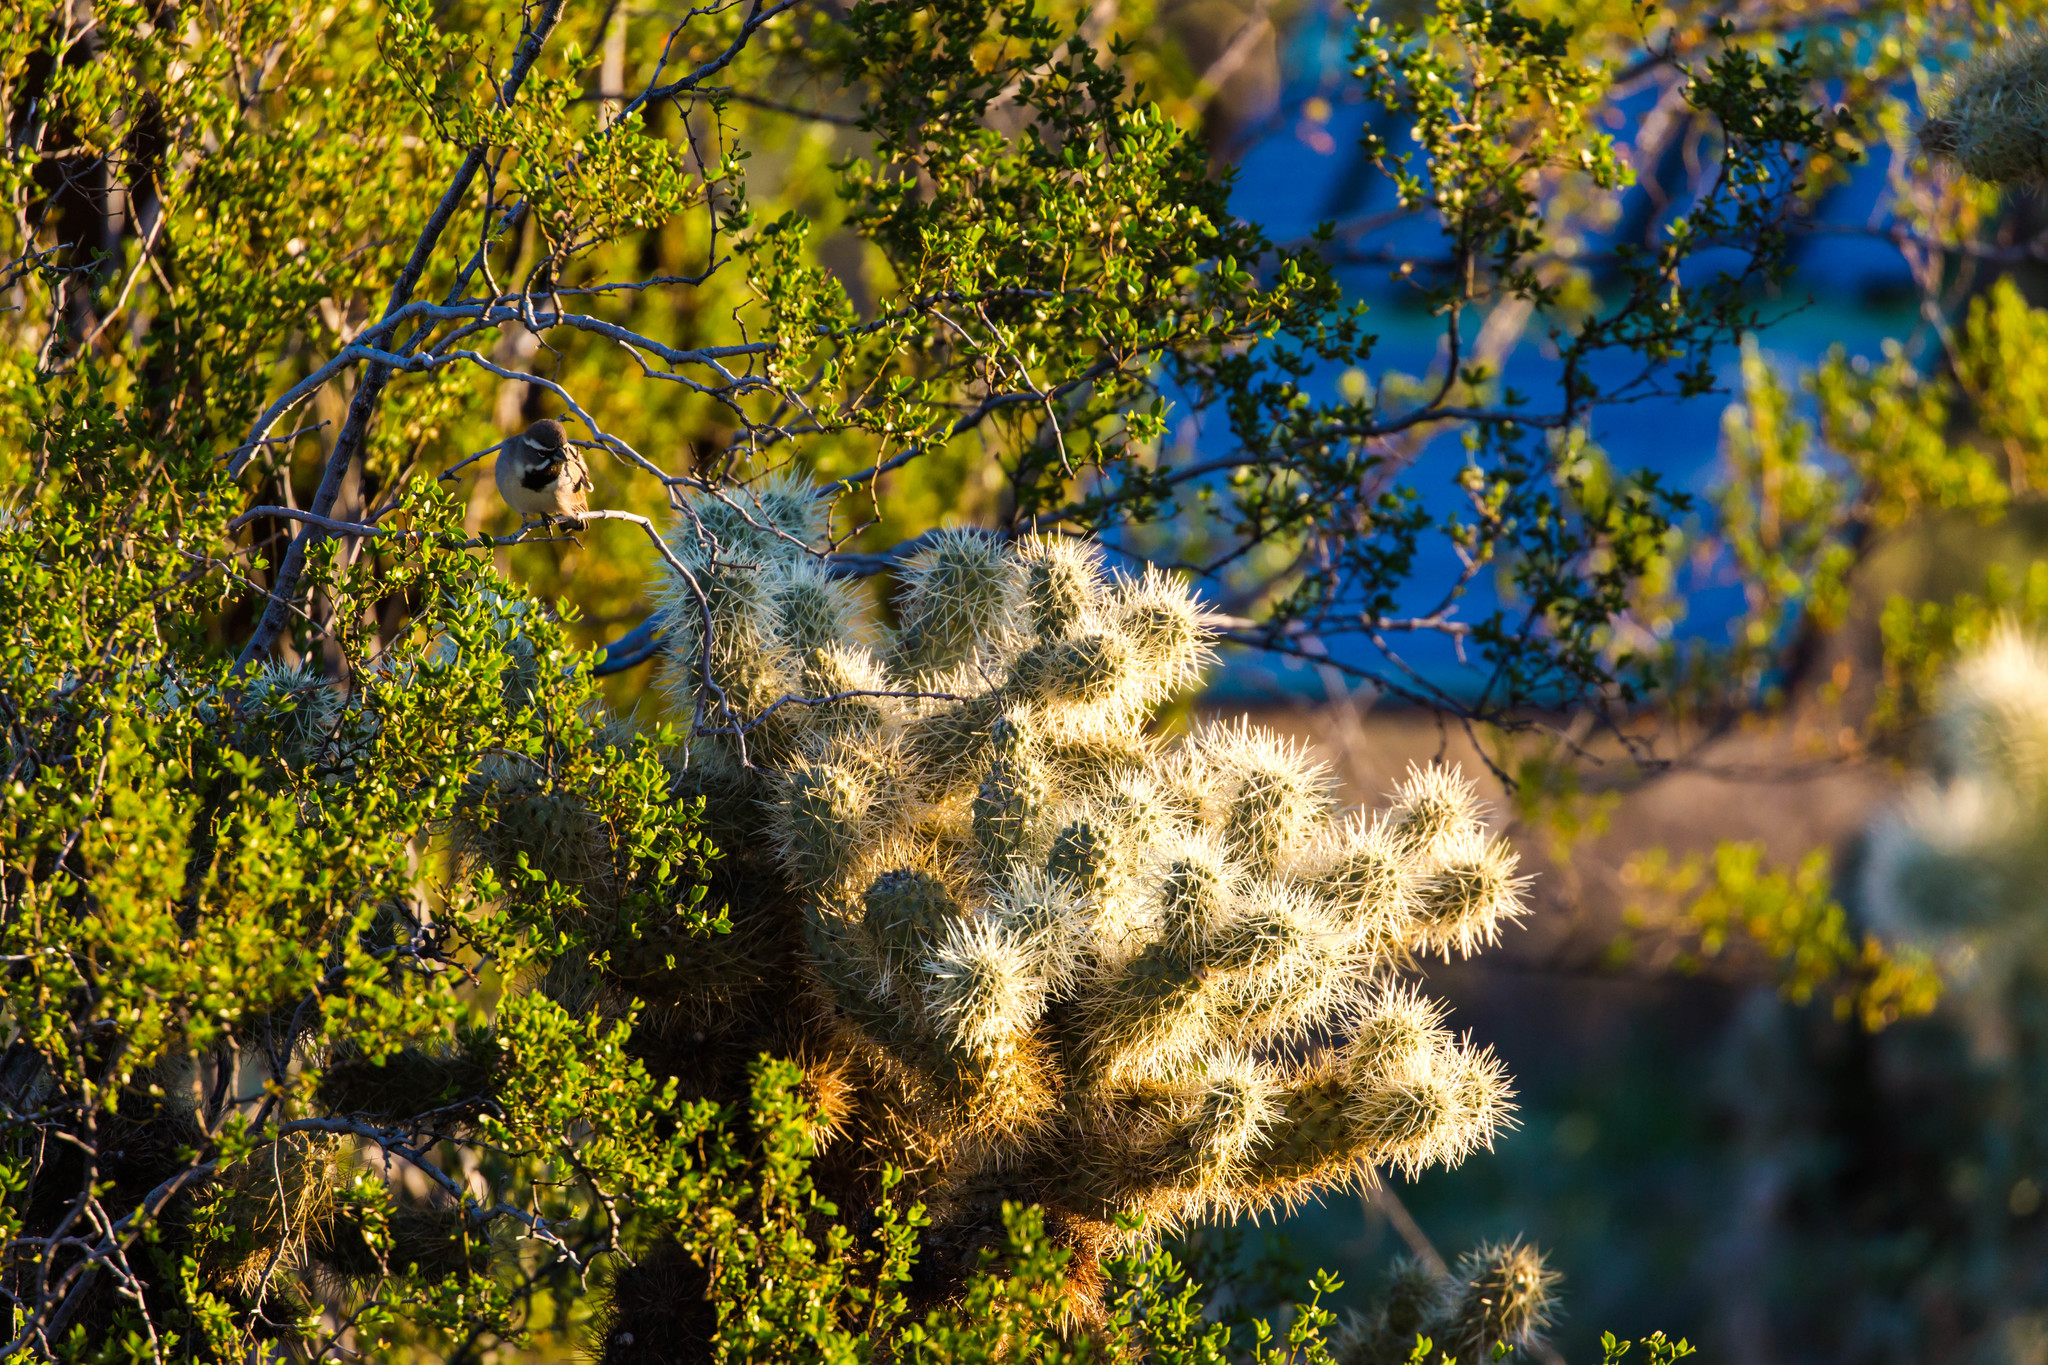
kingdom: Animalia
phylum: Chordata
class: Aves
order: Passeriformes
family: Passerellidae
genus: Amphispiza
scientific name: Amphispiza bilineata
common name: Black-throated sparrow
